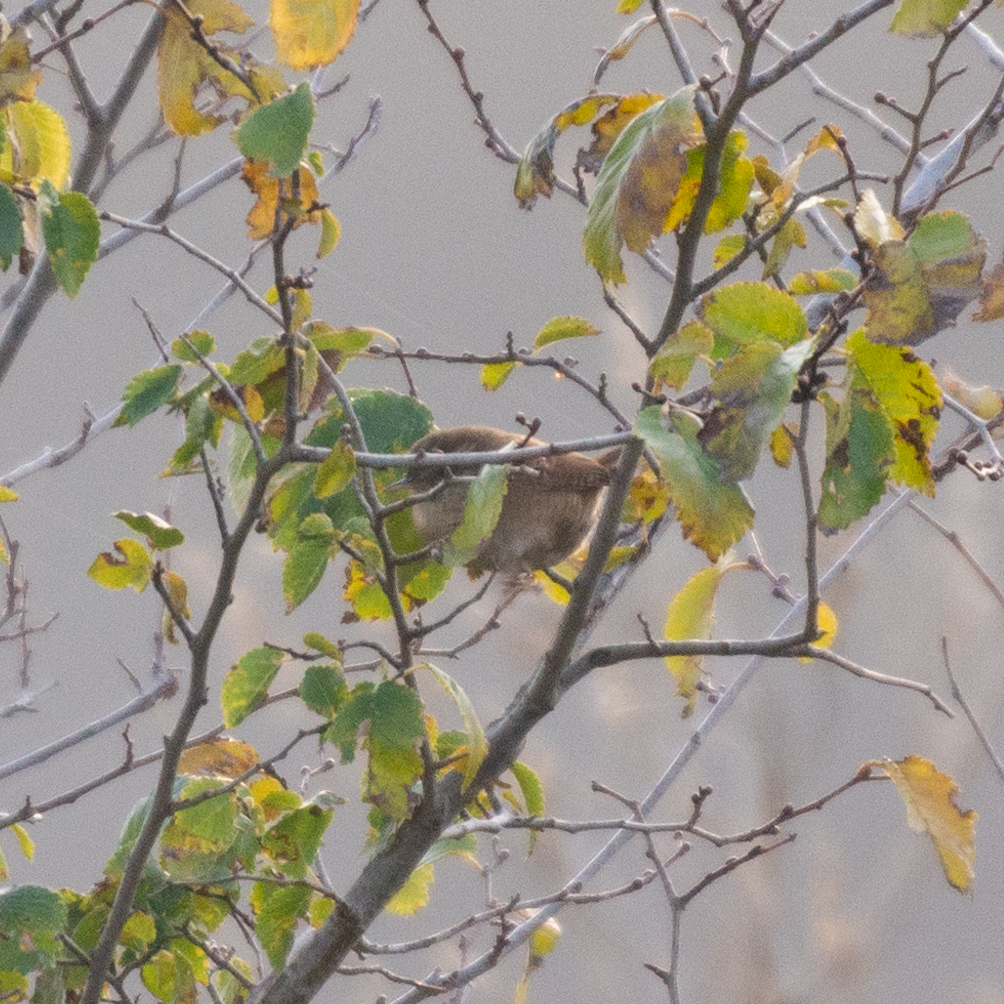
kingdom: Animalia
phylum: Chordata
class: Aves
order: Passeriformes
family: Troglodytidae
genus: Troglodytes
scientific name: Troglodytes troglodytes
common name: Eurasian wren
